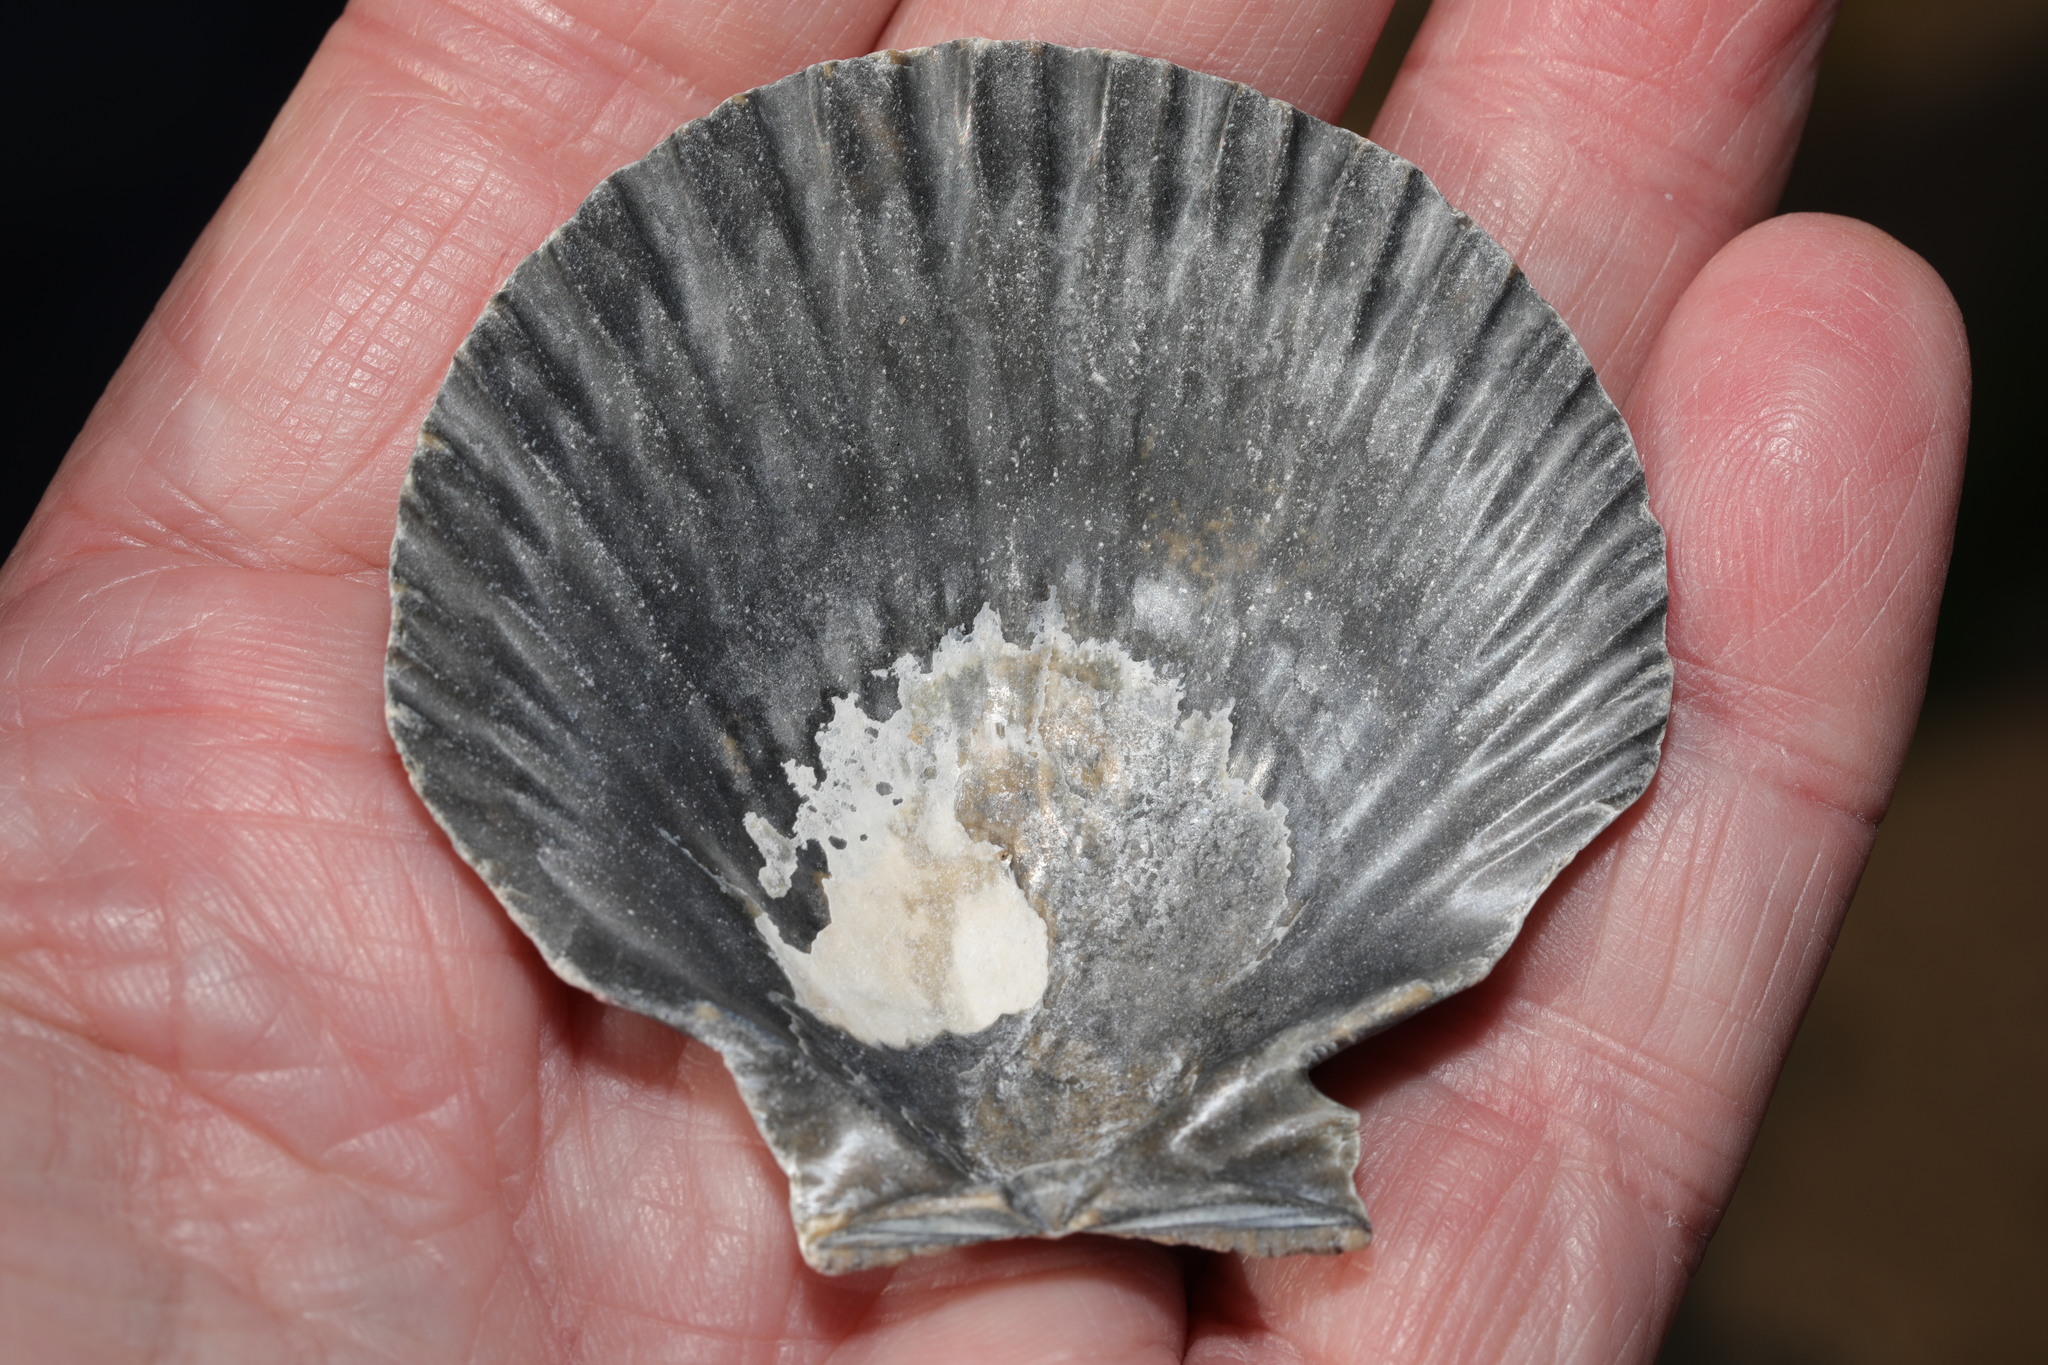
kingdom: Animalia
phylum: Mollusca
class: Bivalvia
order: Pectinida
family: Pectinidae
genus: Aequipecten
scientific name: Aequipecten opercularis
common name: Queen scallop
